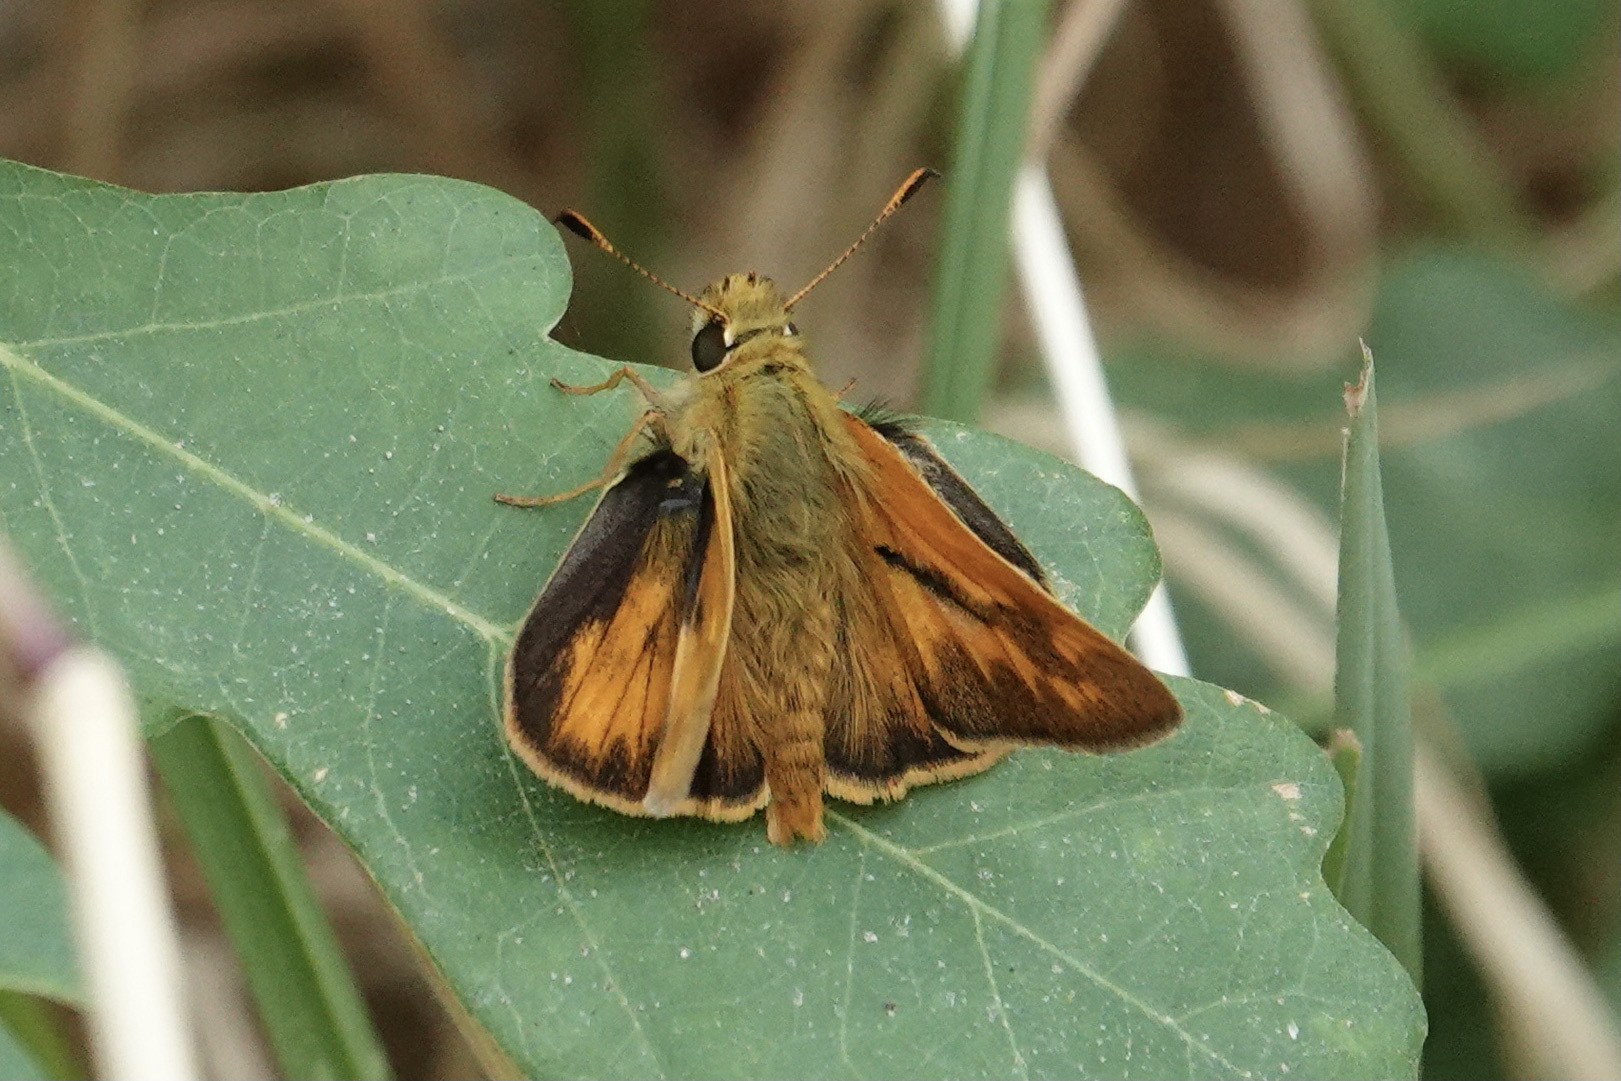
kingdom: Animalia
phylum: Arthropoda
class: Insecta
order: Lepidoptera
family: Hesperiidae
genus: Ochlodes
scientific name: Ochlodes sylvanoides
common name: Woodland skipper
